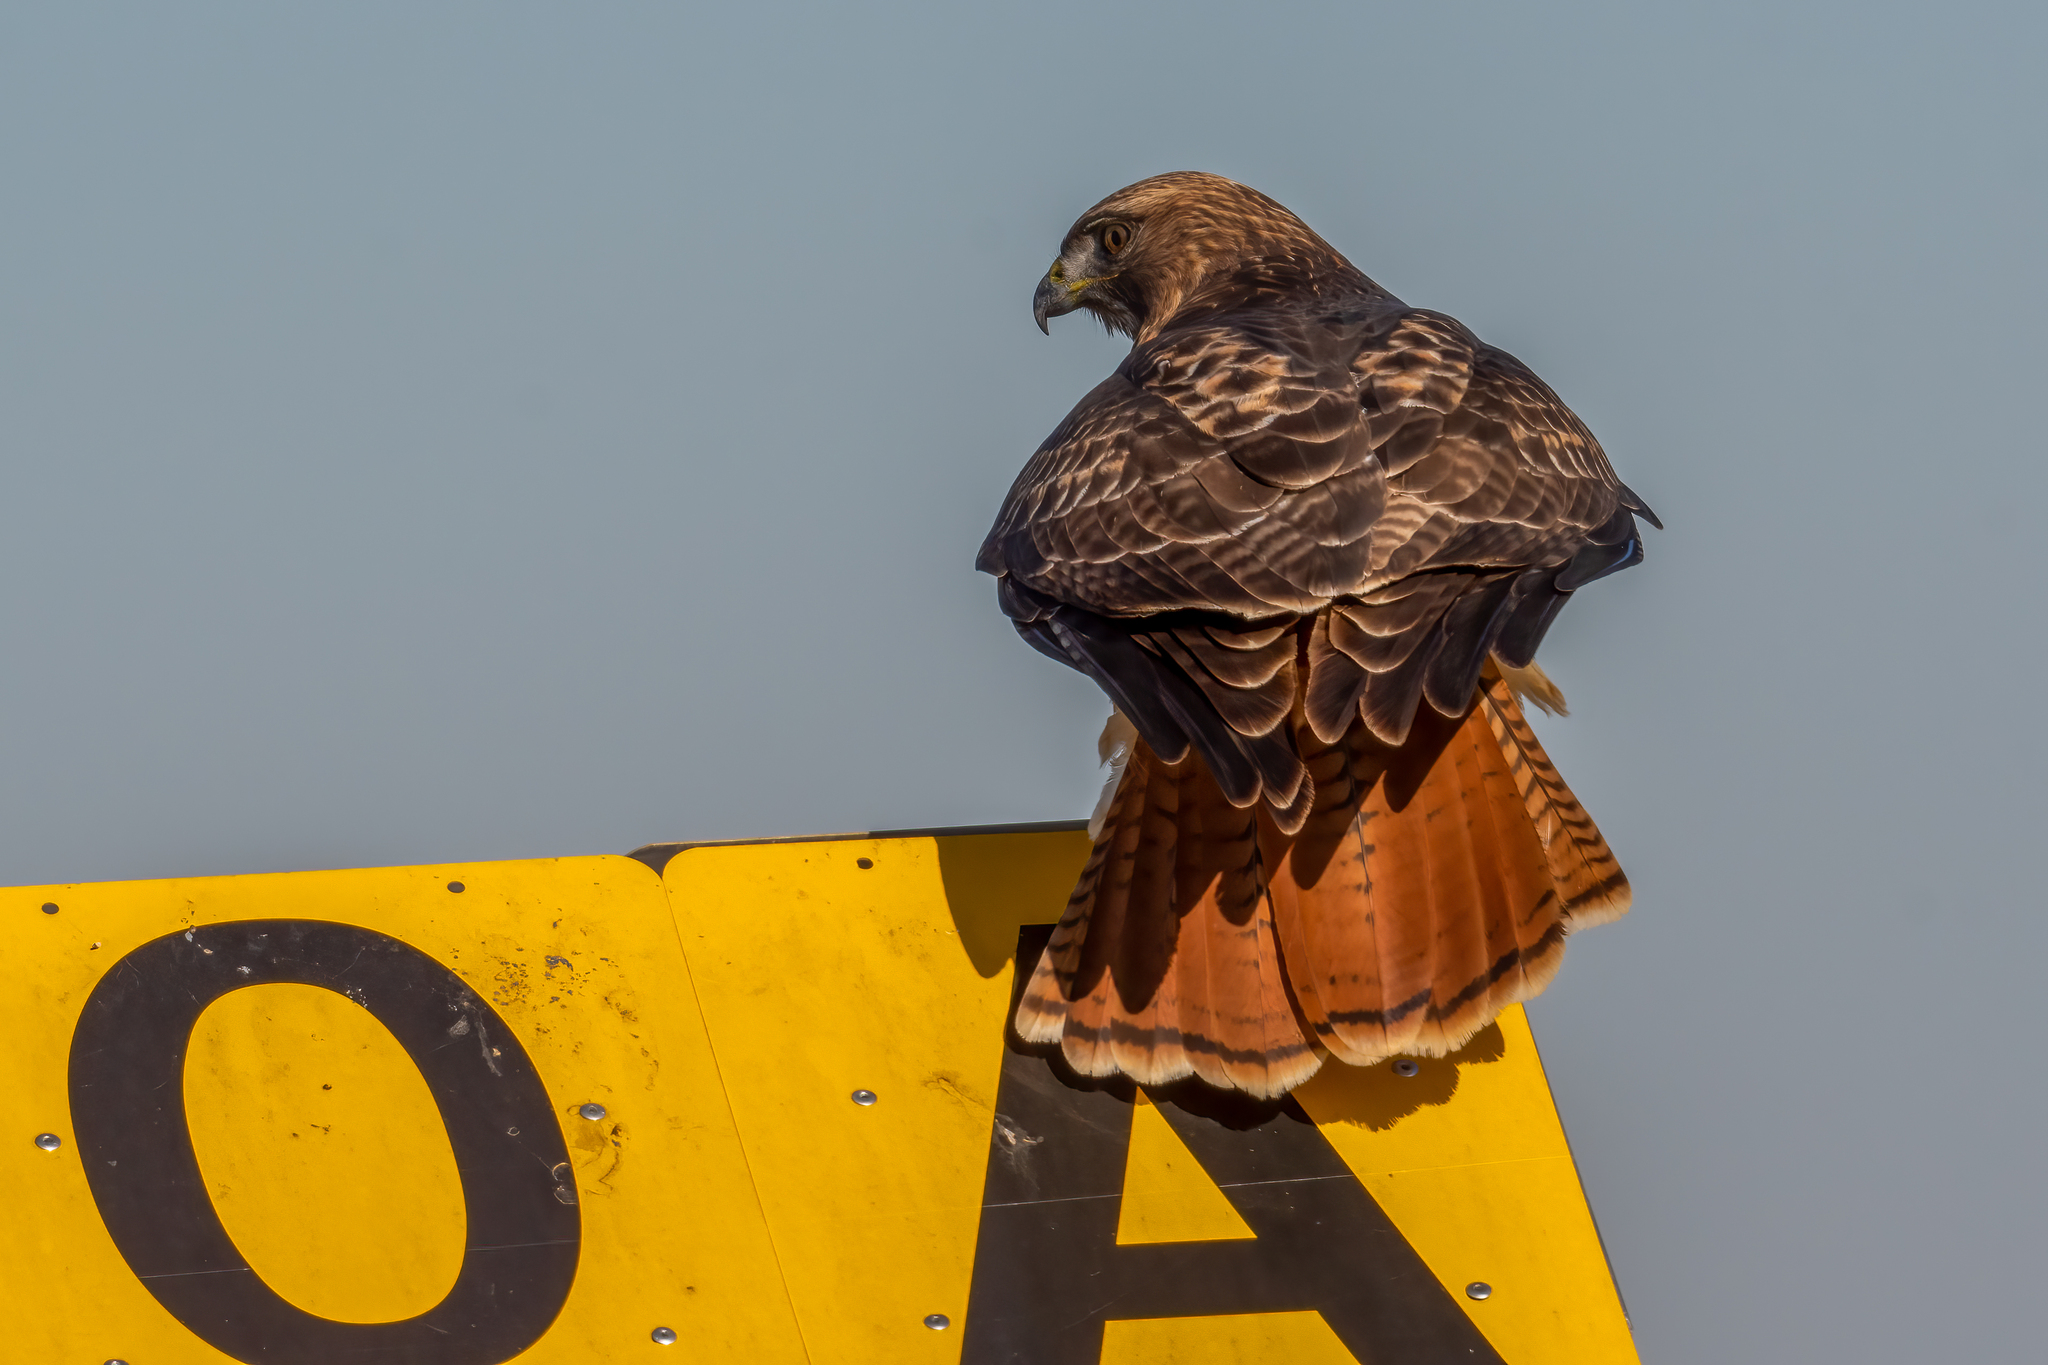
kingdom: Animalia
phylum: Chordata
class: Aves
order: Accipitriformes
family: Accipitridae
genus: Buteo
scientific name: Buteo jamaicensis
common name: Red-tailed hawk
